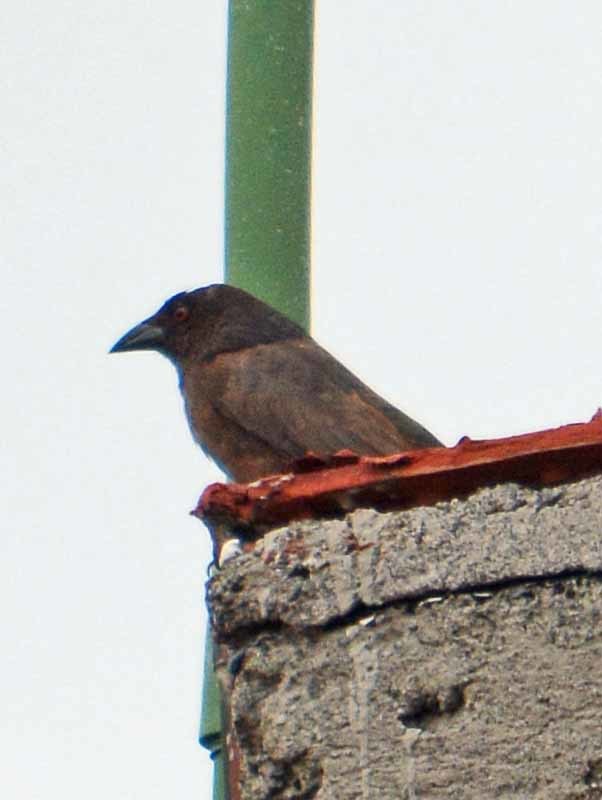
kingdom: Animalia
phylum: Chordata
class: Aves
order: Passeriformes
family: Icteridae
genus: Molothrus
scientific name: Molothrus aeneus
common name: Bronzed cowbird
